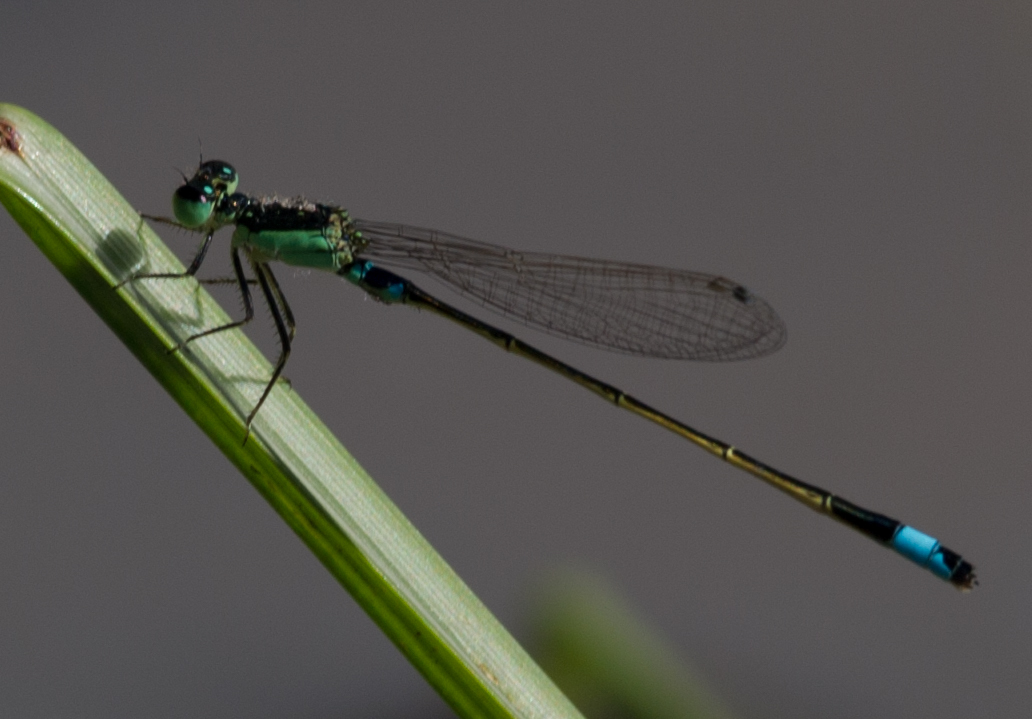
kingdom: Animalia
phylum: Arthropoda
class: Insecta
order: Odonata
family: Coenagrionidae
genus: Ischnura
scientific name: Ischnura senegalensis
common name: Tropical bluetail
